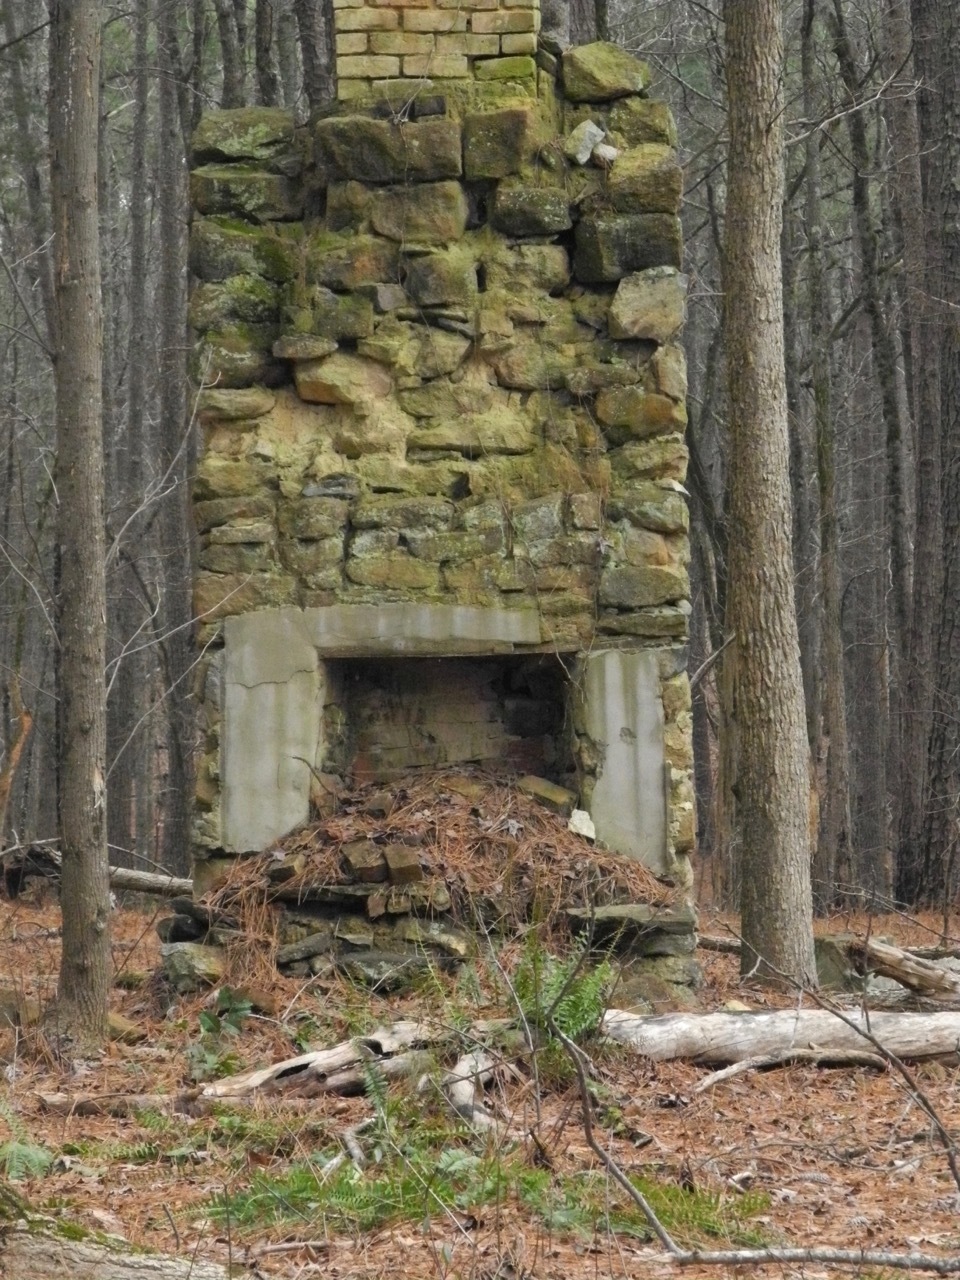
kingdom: Plantae
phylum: Tracheophyta
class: Polypodiopsida
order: Polypodiales
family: Dryopteridaceae
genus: Polystichum
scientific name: Polystichum acrostichoides
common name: Christmas fern
